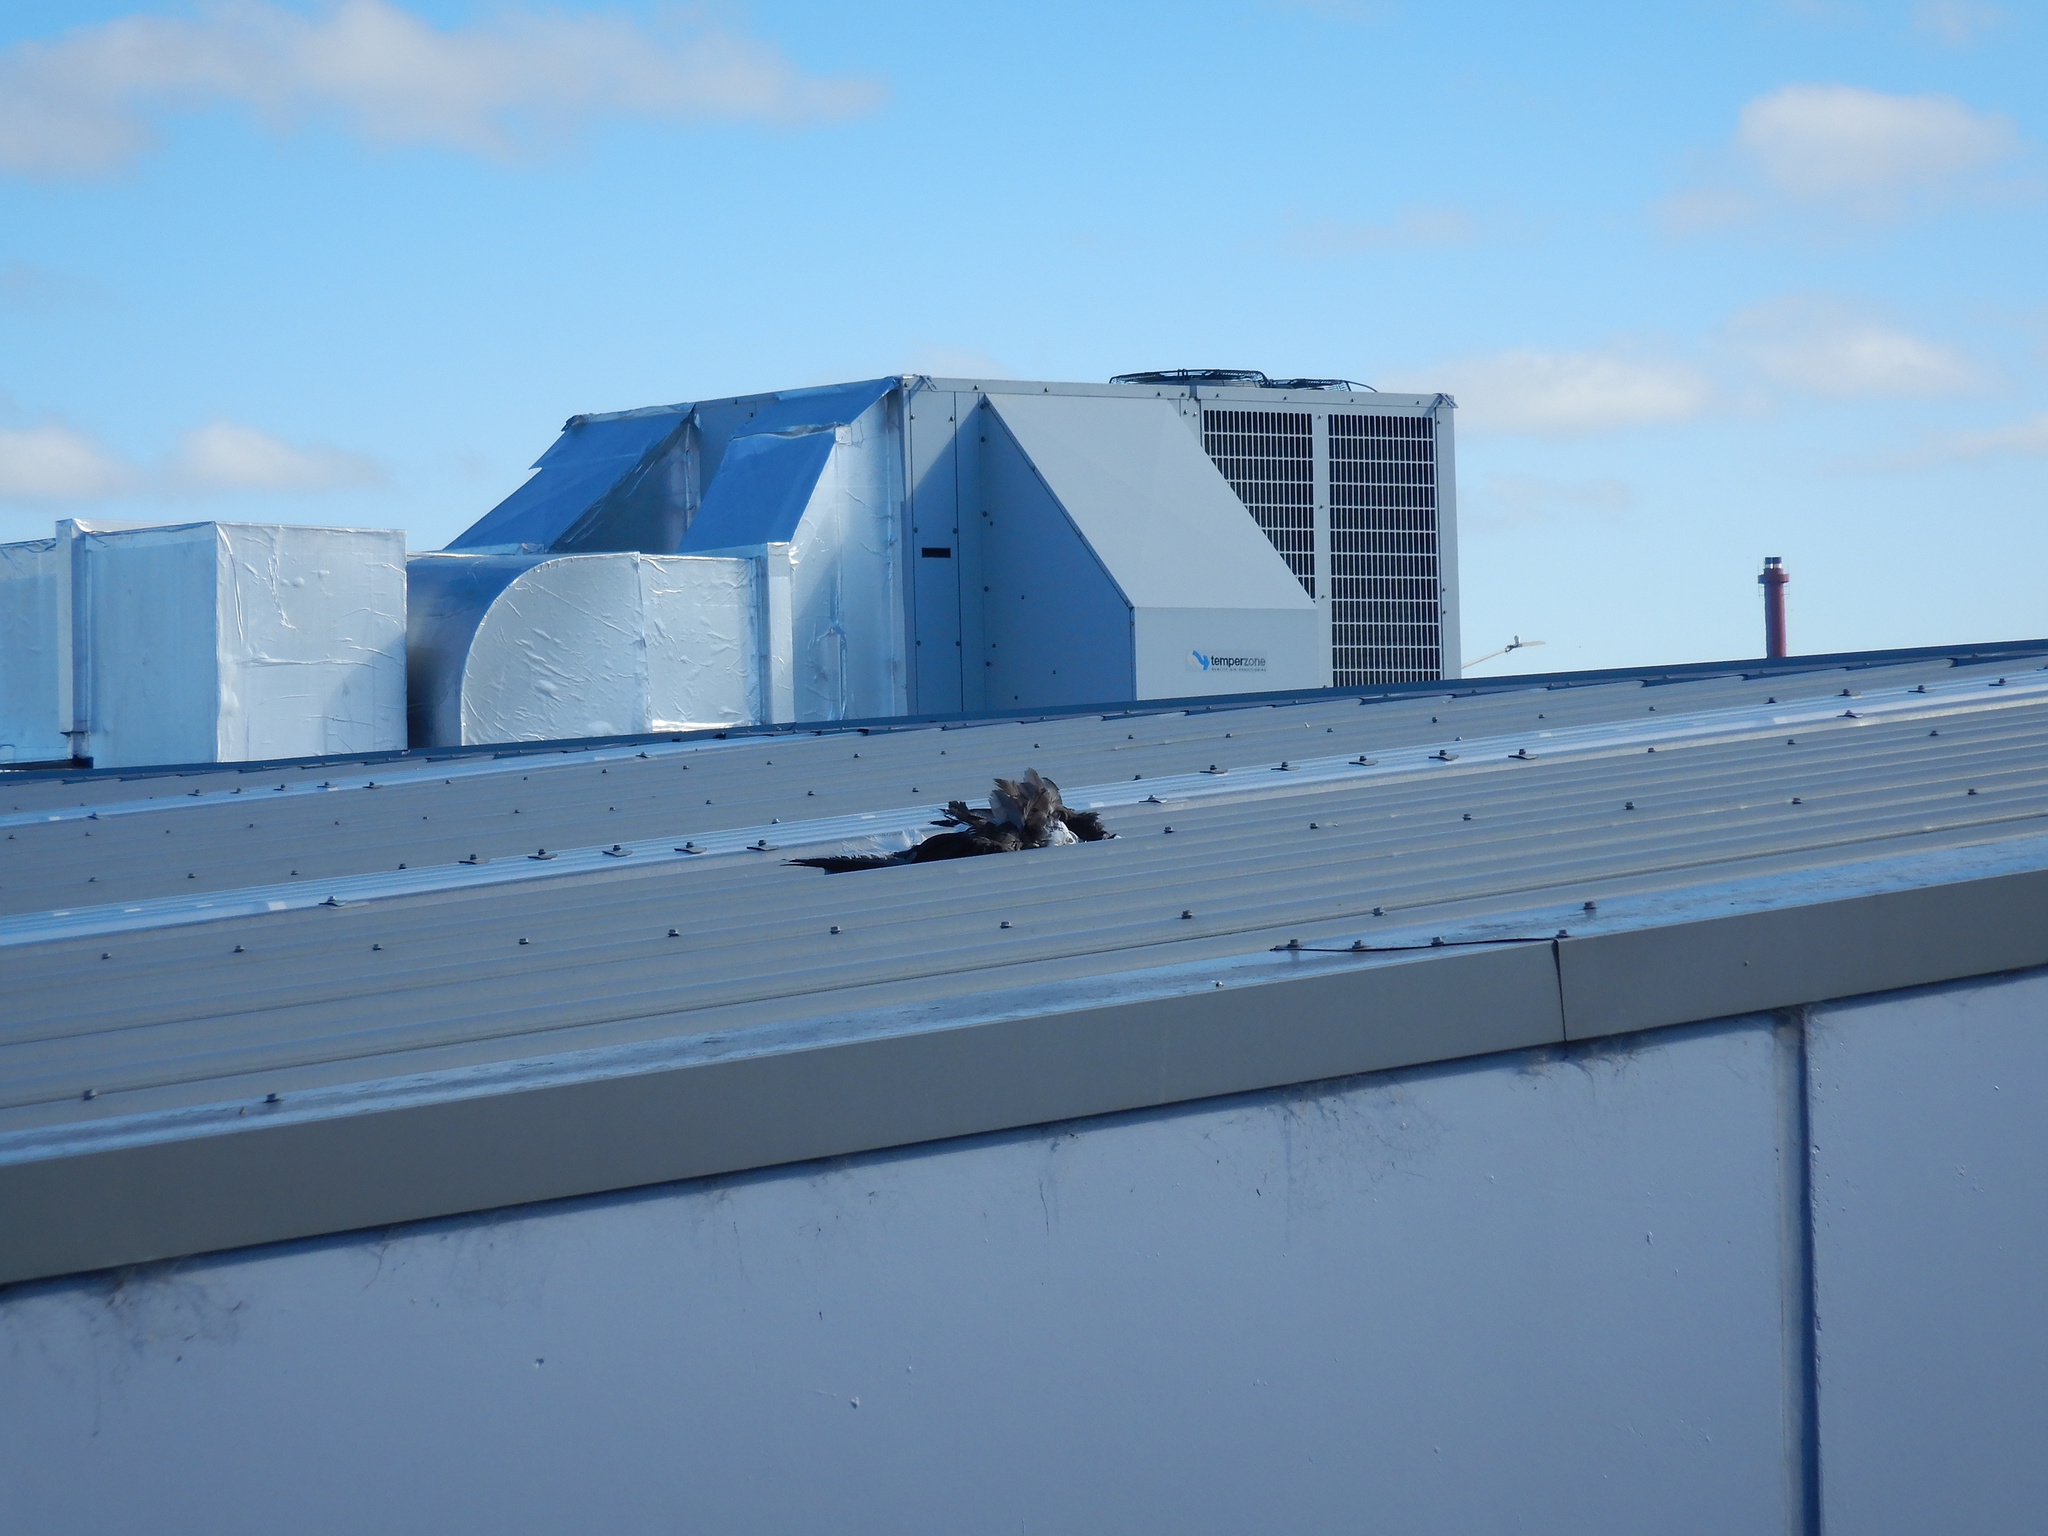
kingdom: Animalia
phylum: Chordata
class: Aves
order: Columbiformes
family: Columbidae
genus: Columba
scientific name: Columba livia
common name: Rock pigeon
